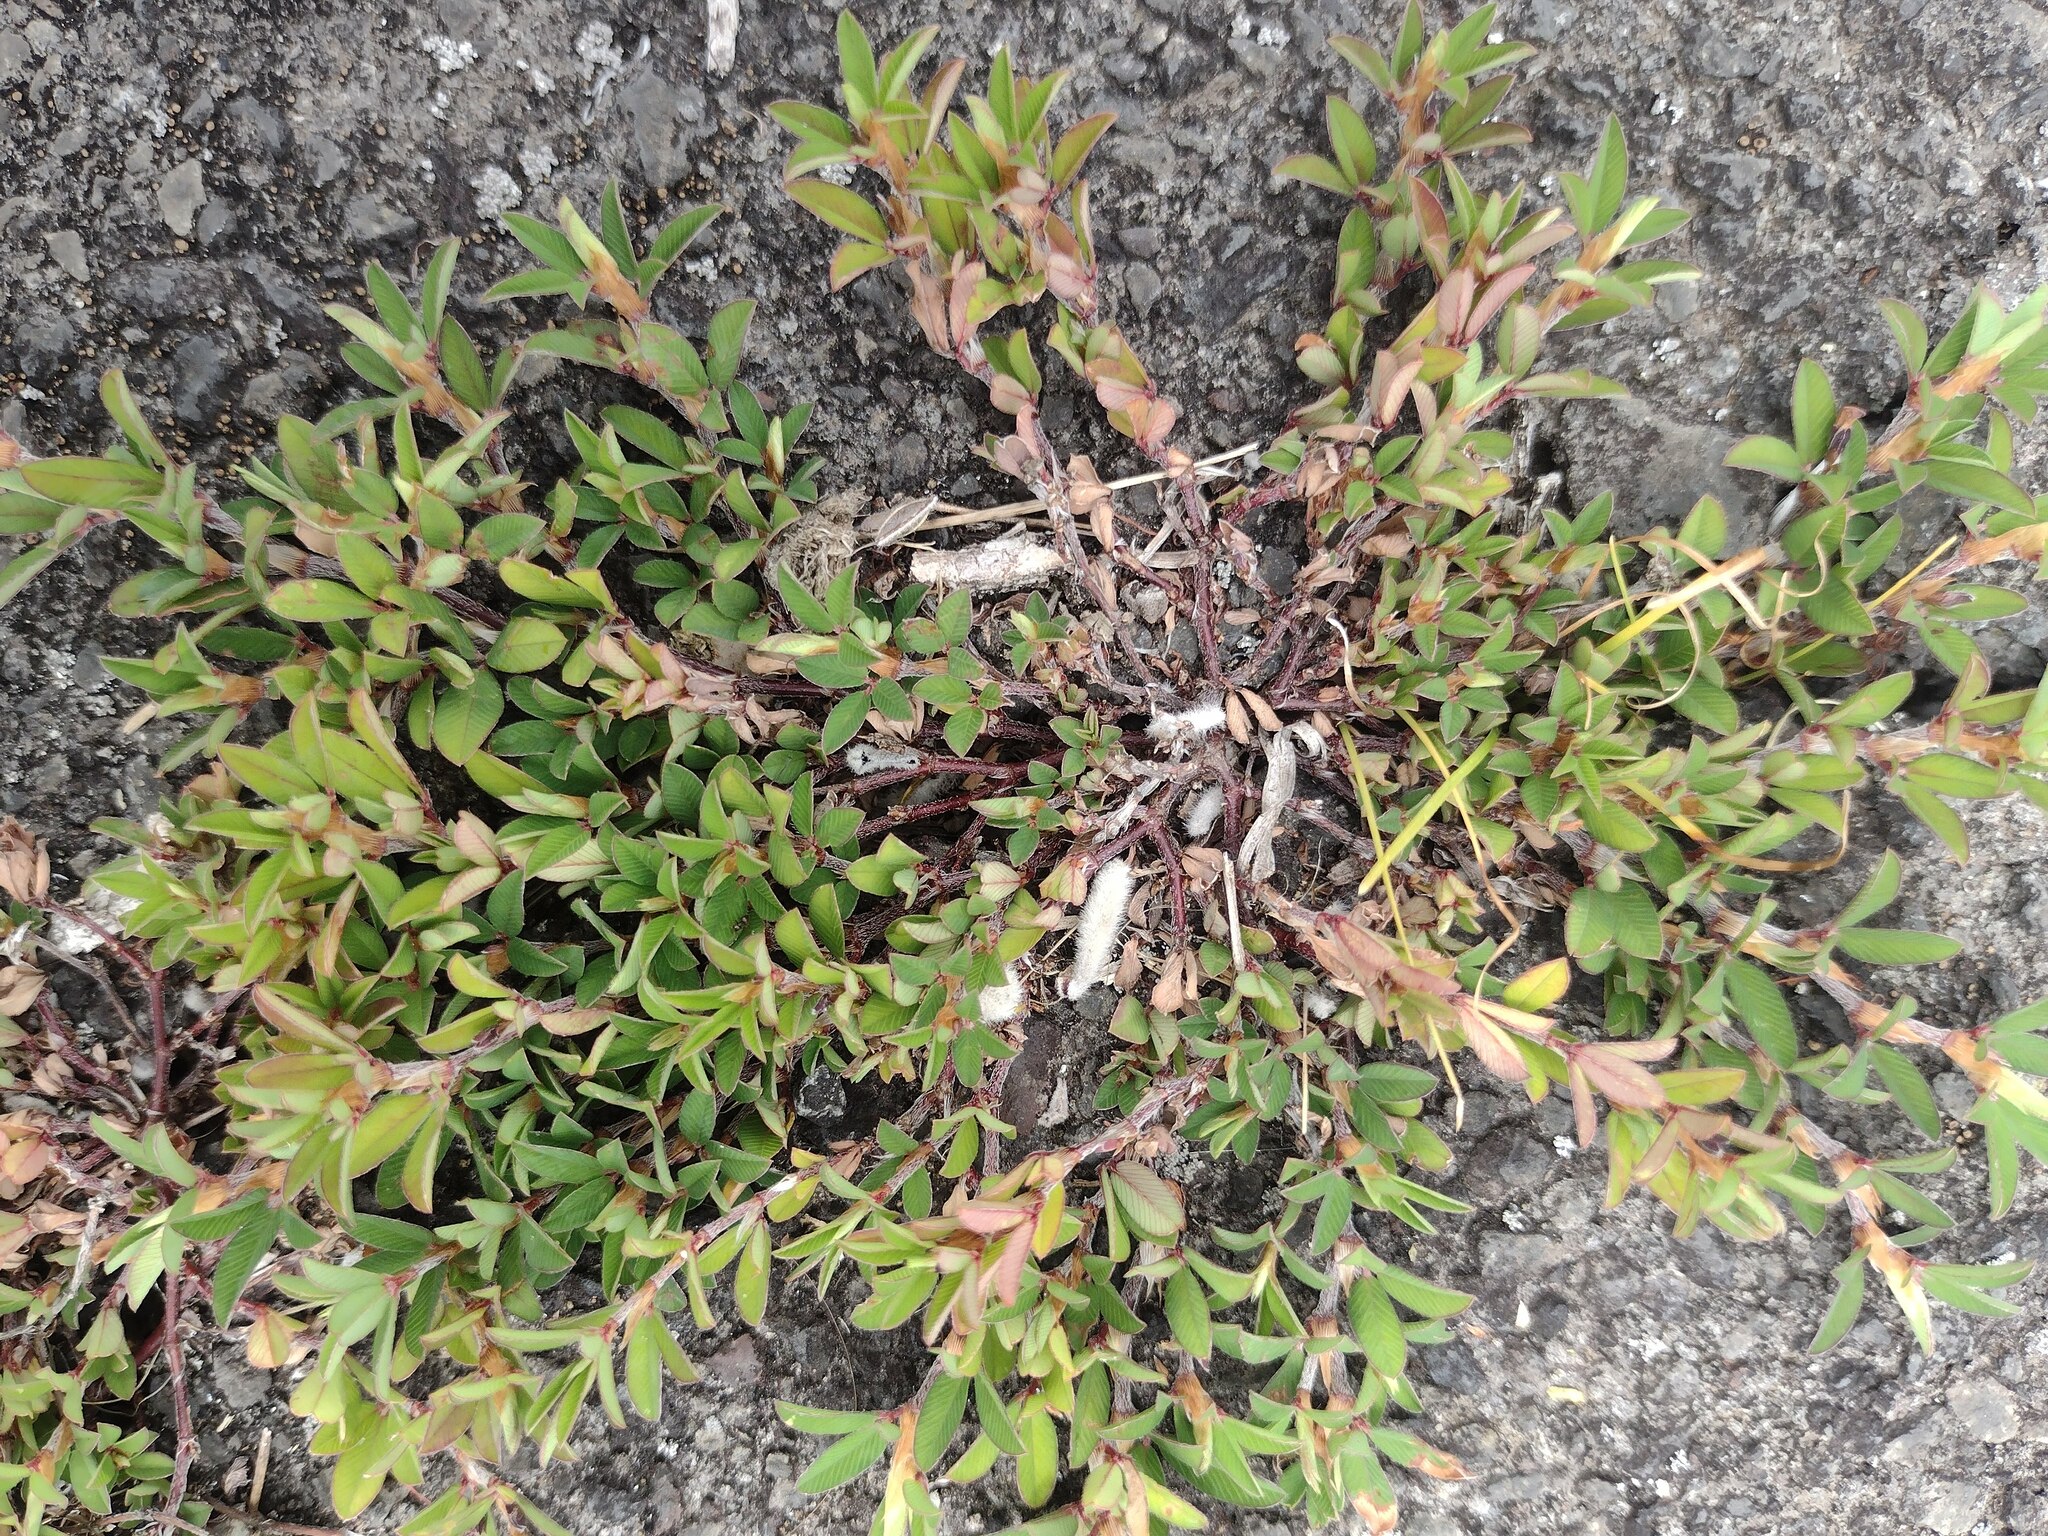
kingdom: Plantae
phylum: Tracheophyta
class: Magnoliopsida
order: Fabales
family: Fabaceae
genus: Kummerowia
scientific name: Kummerowia striata
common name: Japanese clover
